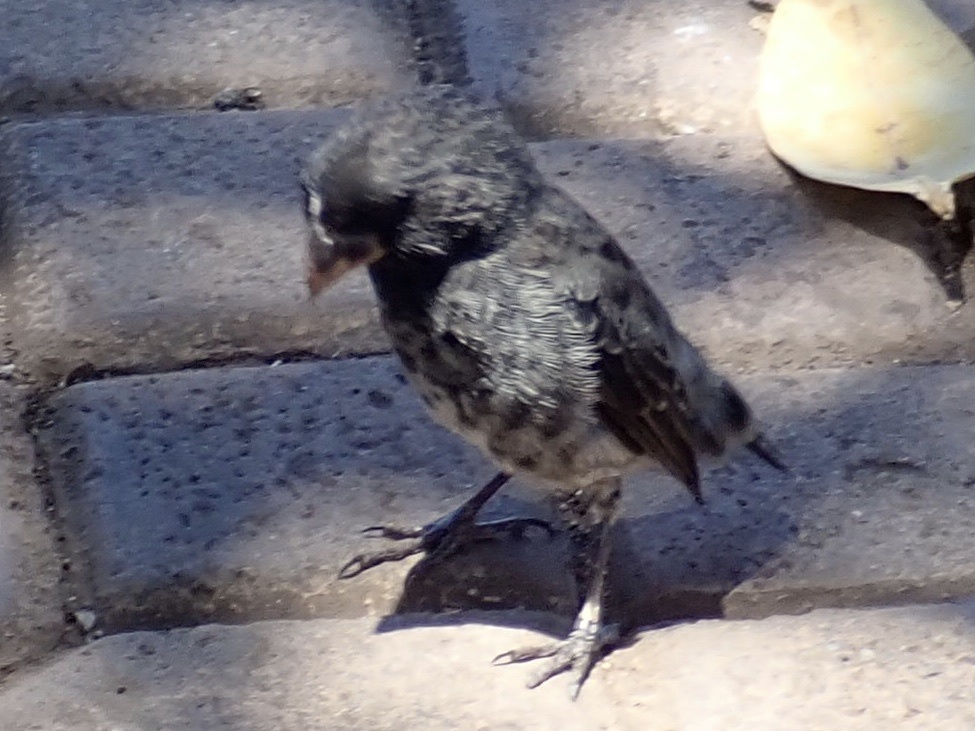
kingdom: Animalia
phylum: Chordata
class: Aves
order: Passeriformes
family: Thraupidae
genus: Geospiza
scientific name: Geospiza fuliginosa
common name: Small ground finch
